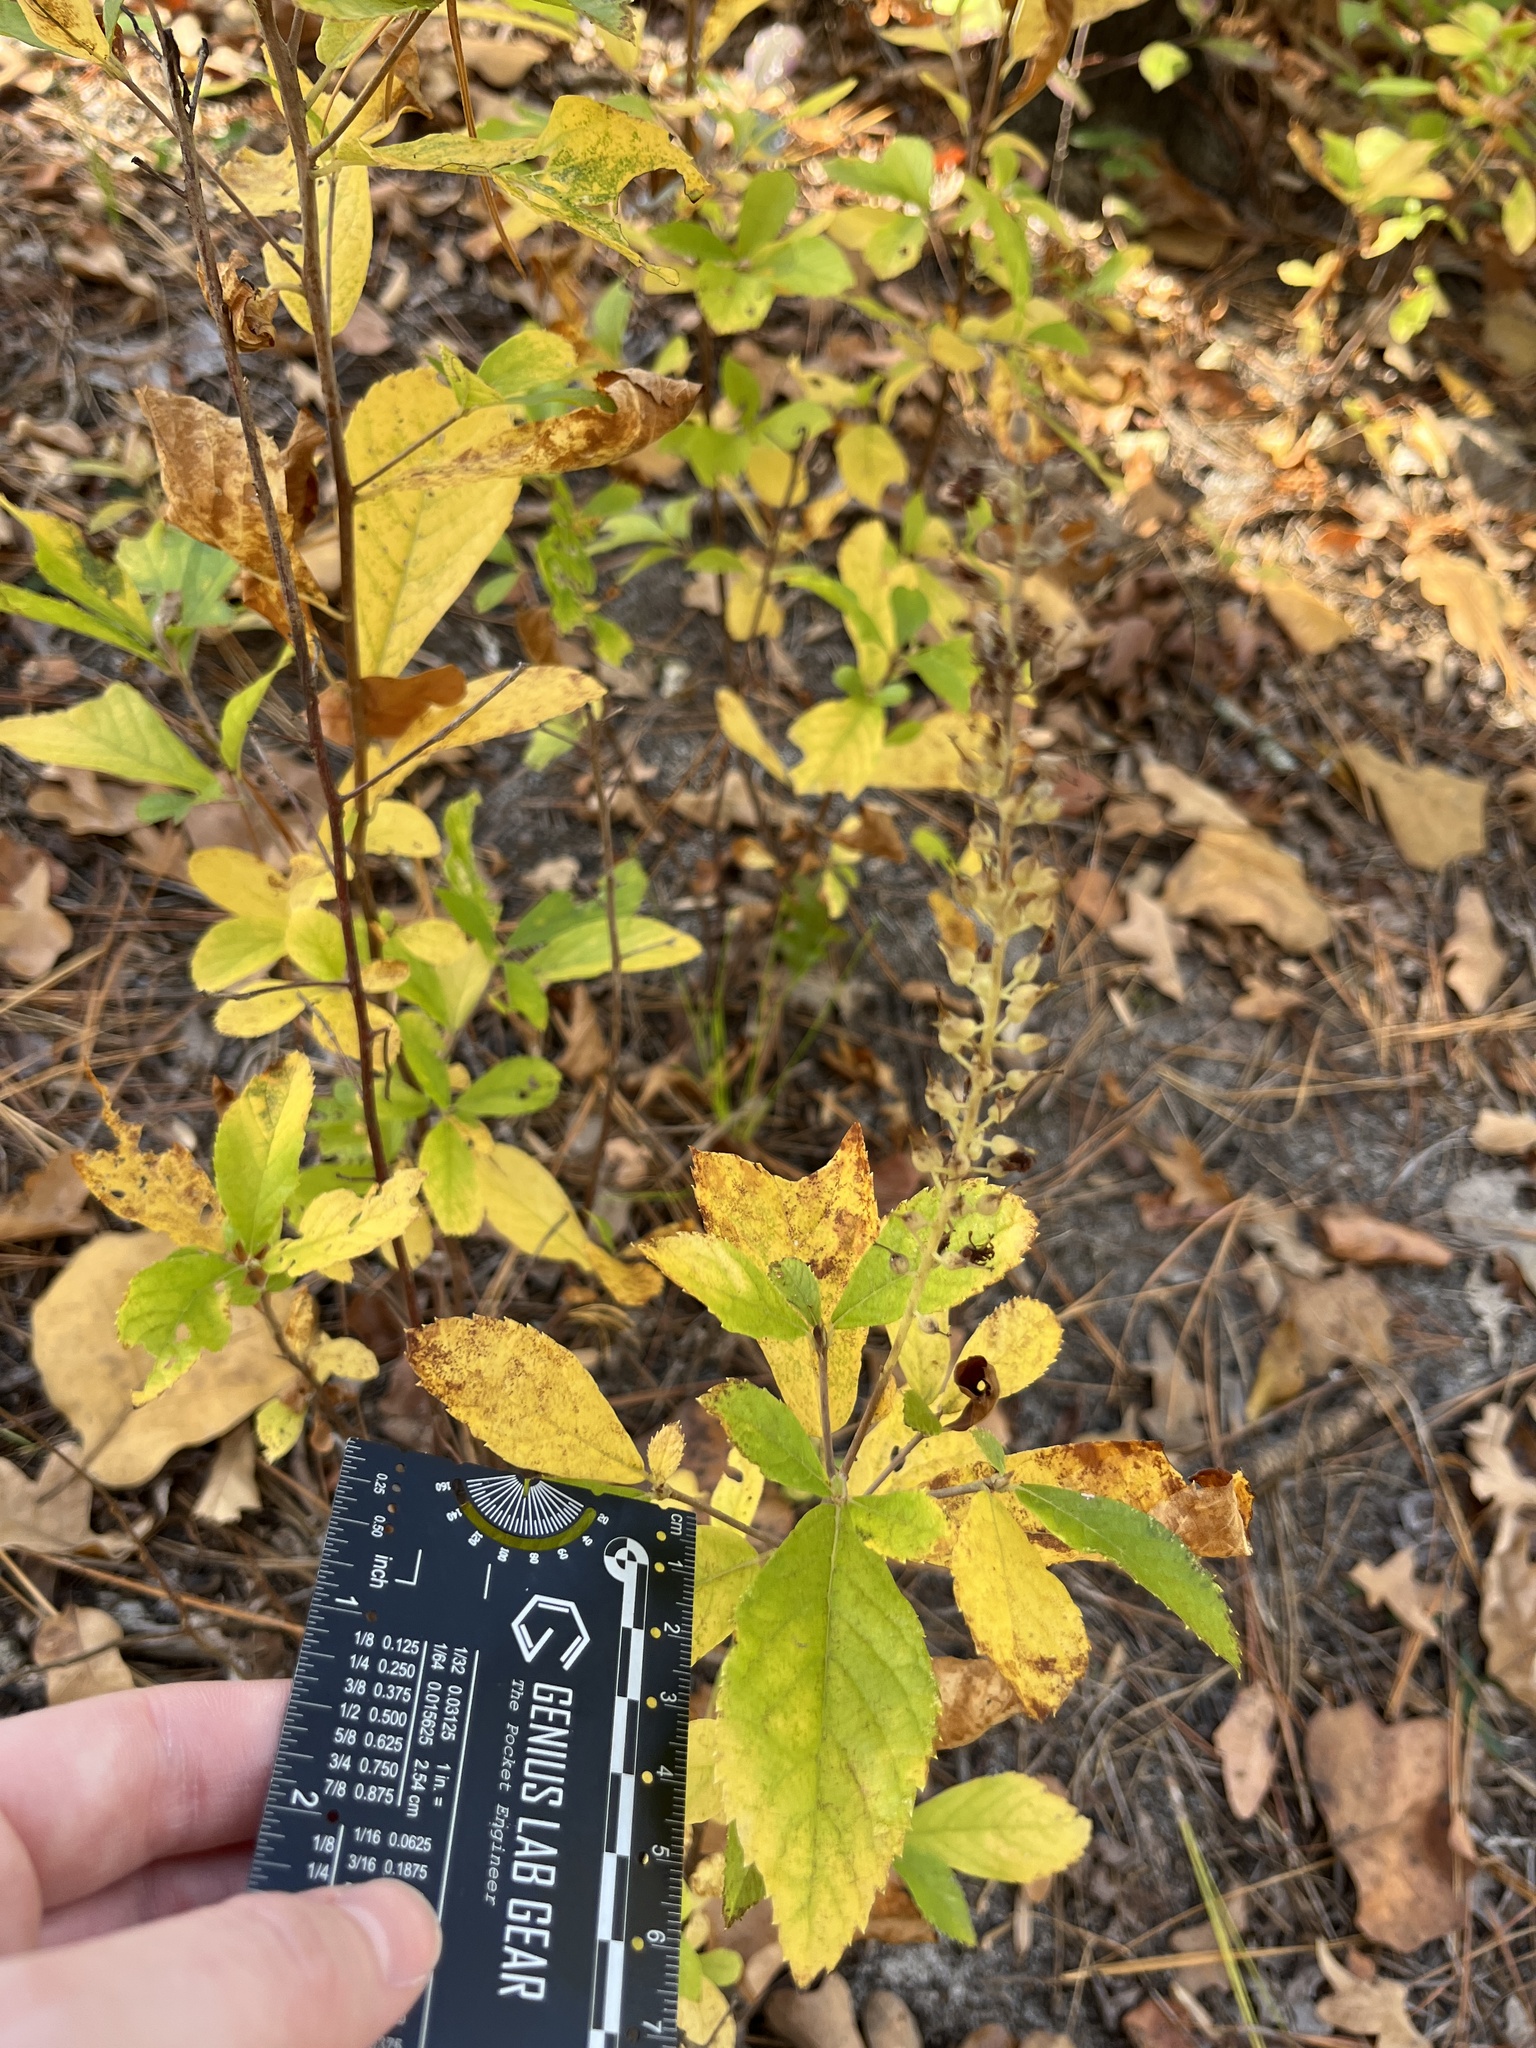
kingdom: Plantae
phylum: Tracheophyta
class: Magnoliopsida
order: Ericales
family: Clethraceae
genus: Clethra
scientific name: Clethra alnifolia
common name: Sweet pepperbush
